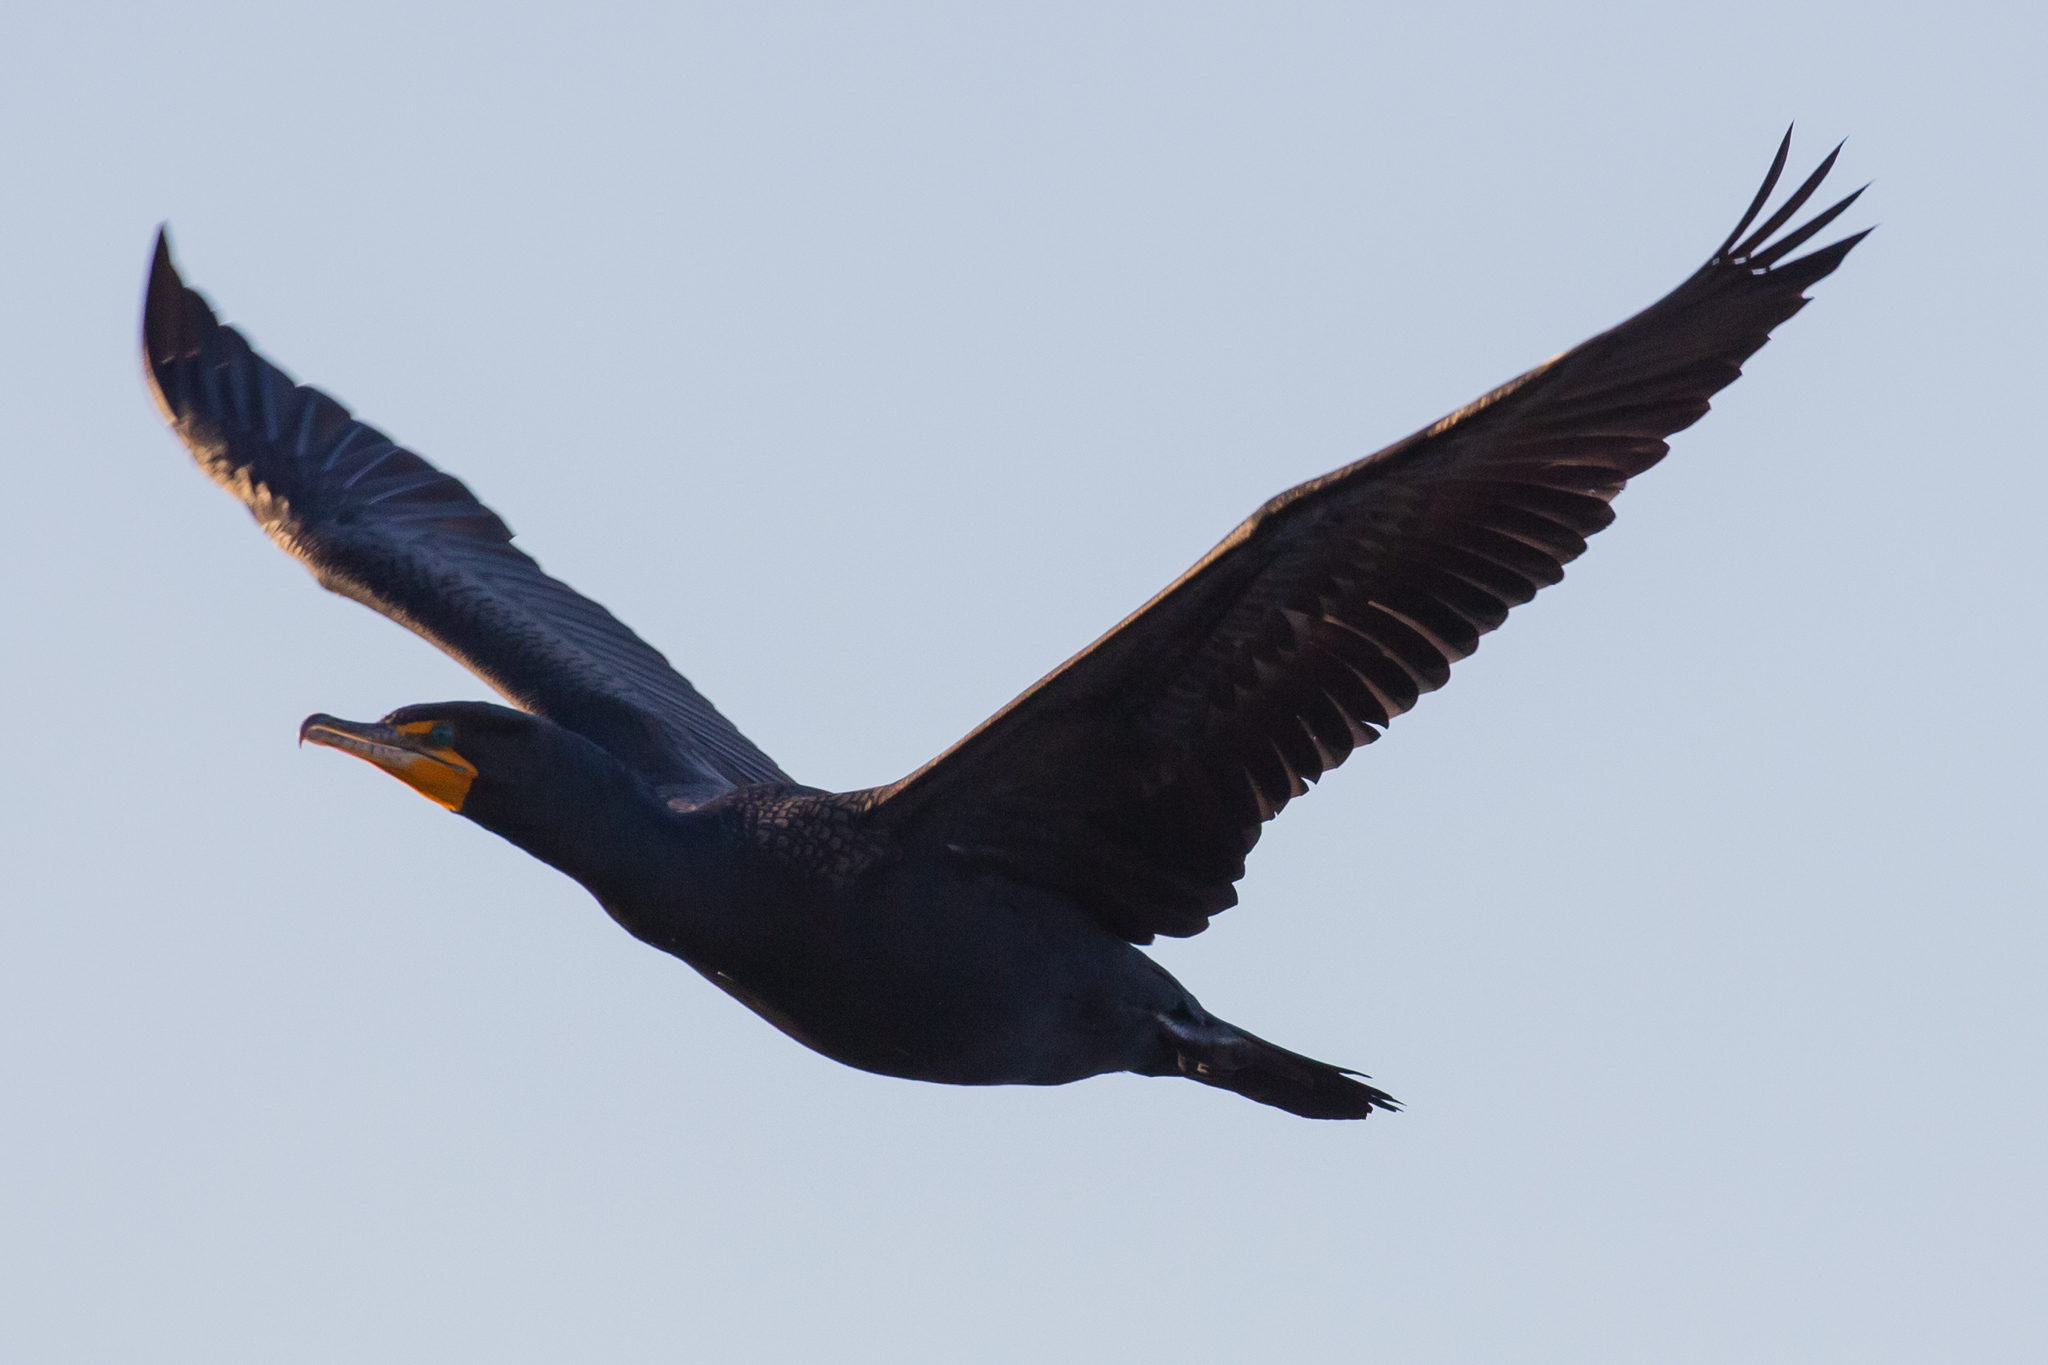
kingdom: Animalia
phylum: Chordata
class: Aves
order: Suliformes
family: Phalacrocoracidae
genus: Phalacrocorax
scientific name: Phalacrocorax auritus
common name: Double-crested cormorant
